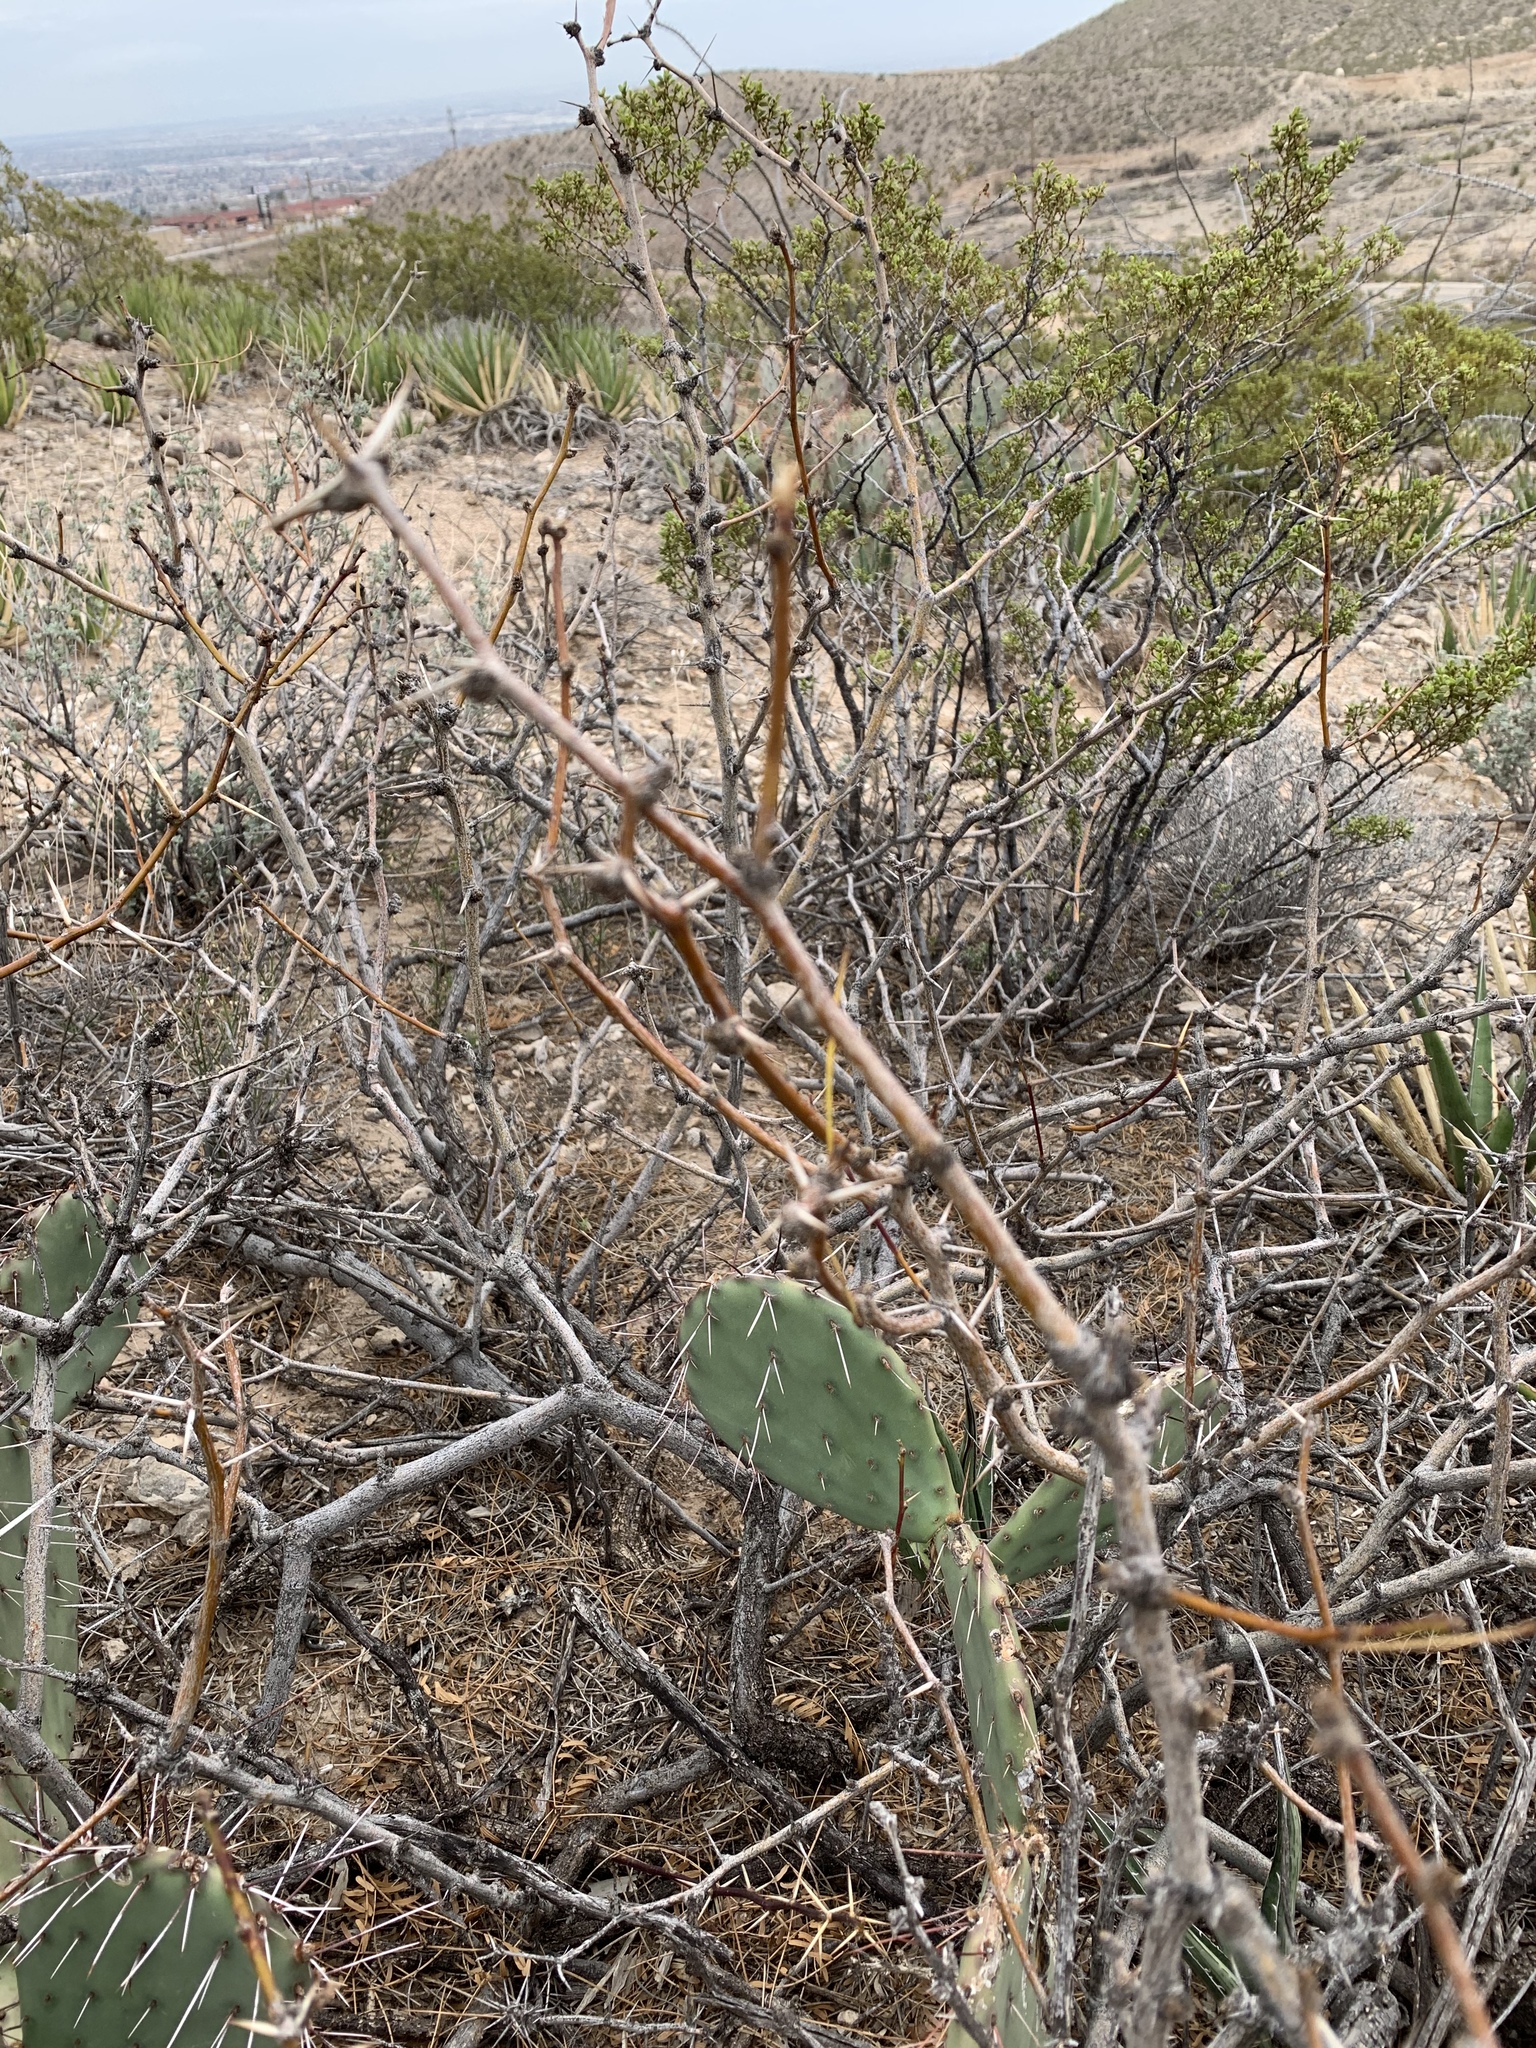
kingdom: Plantae
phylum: Tracheophyta
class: Magnoliopsida
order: Fabales
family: Fabaceae
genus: Prosopis
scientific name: Prosopis glandulosa
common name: Honey mesquite
